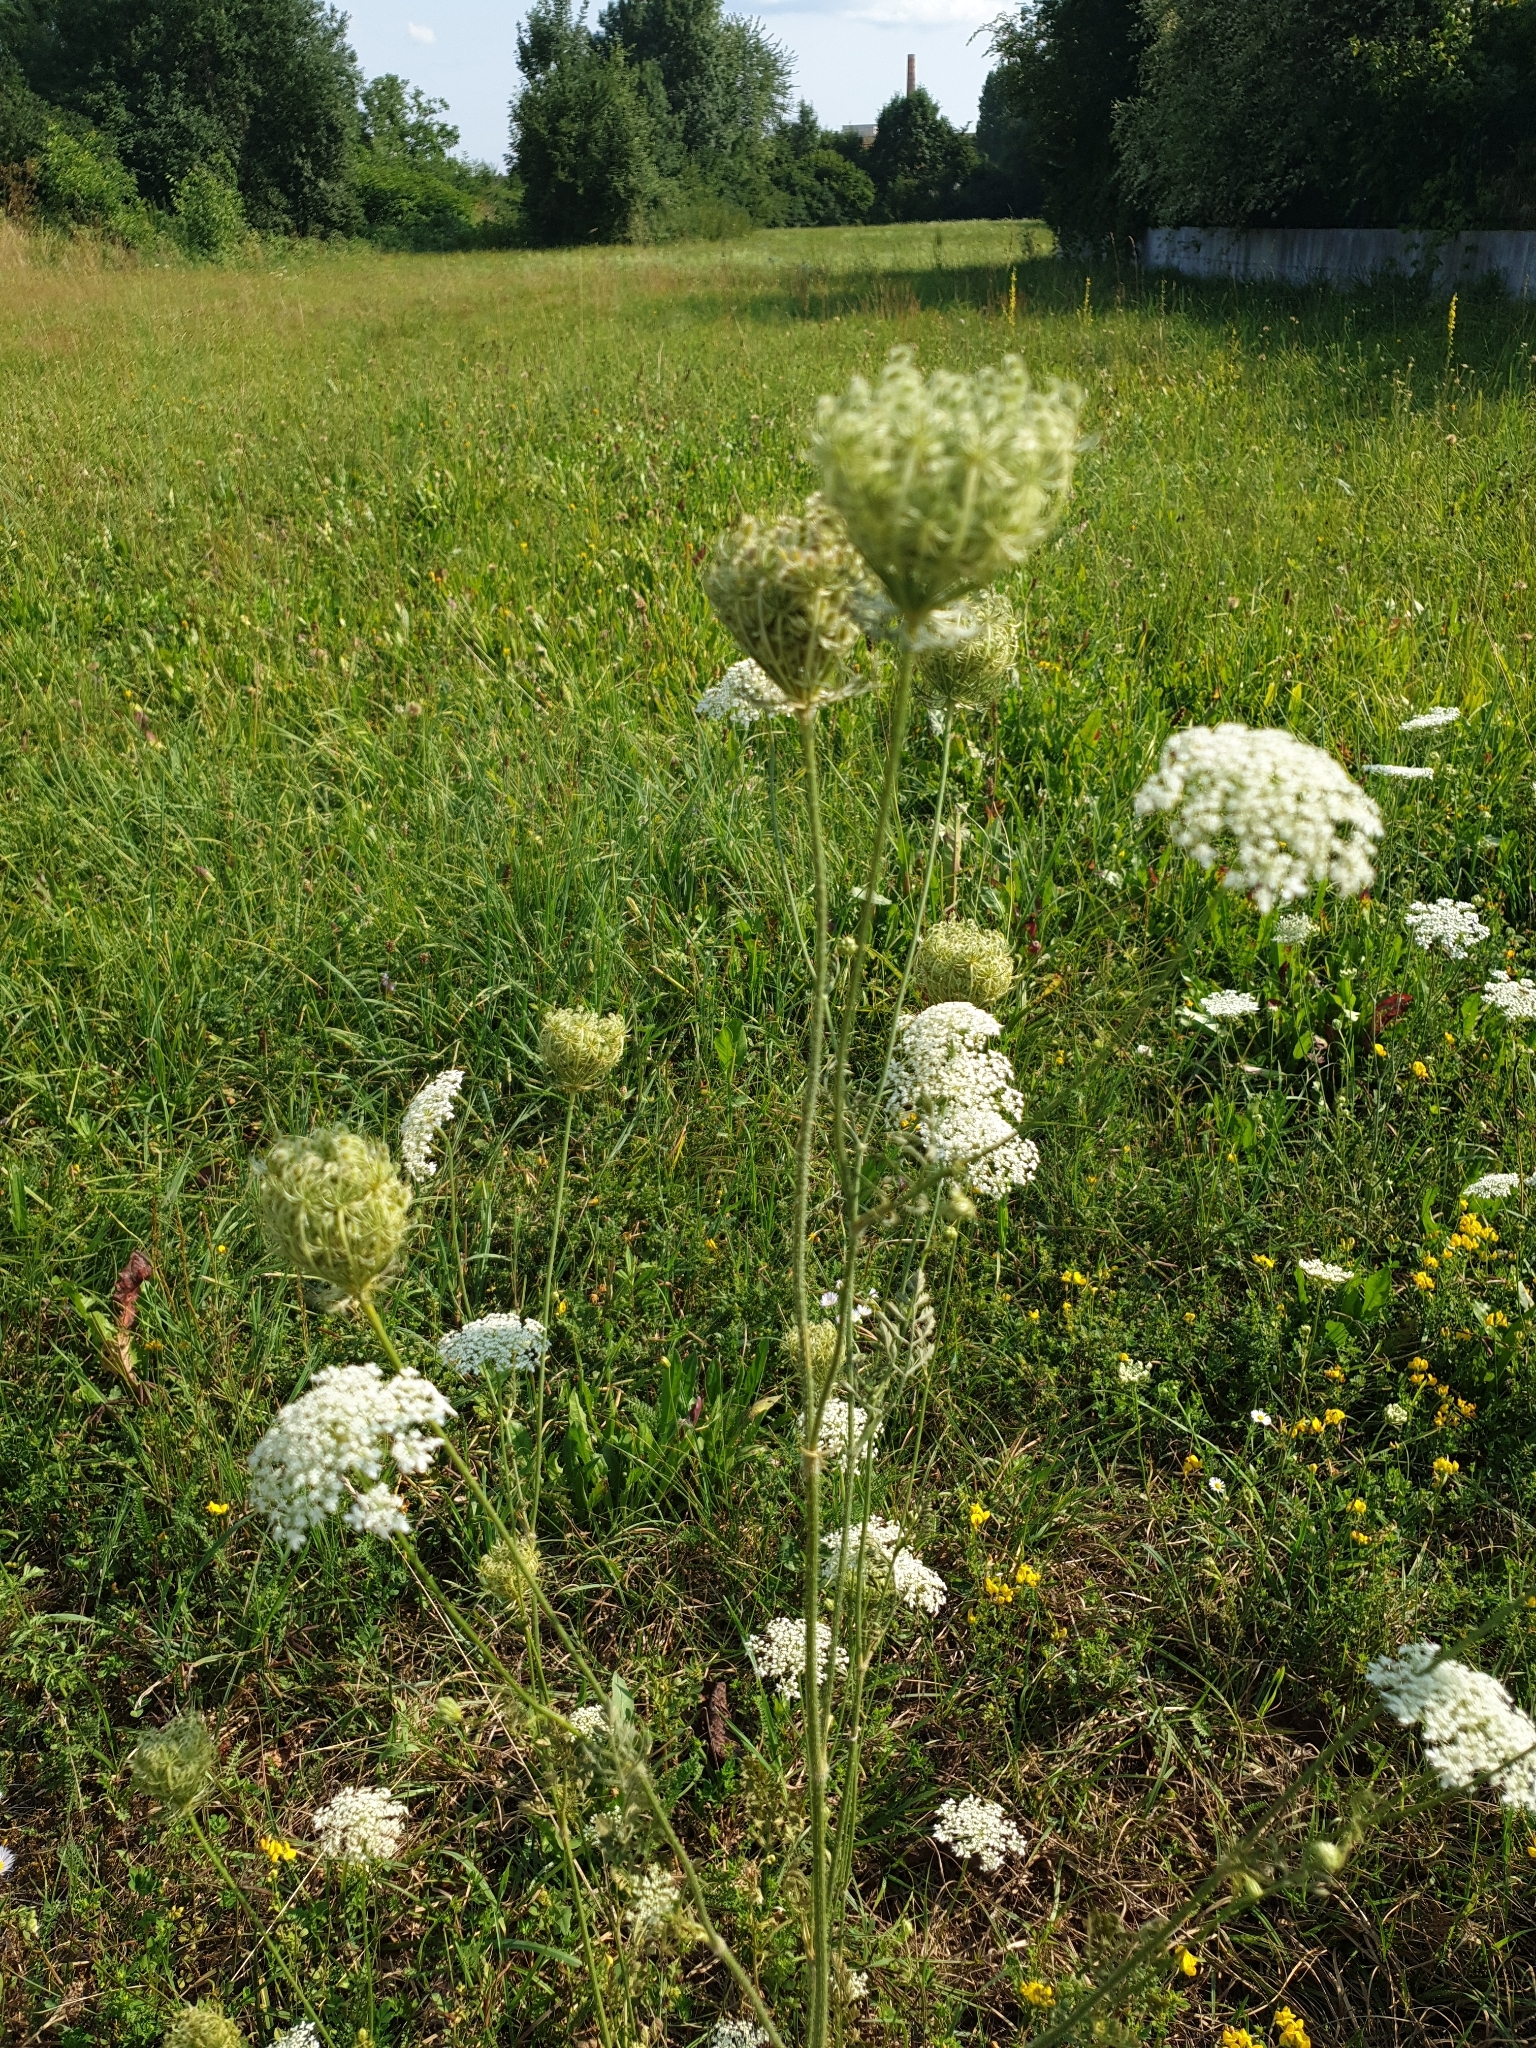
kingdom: Plantae
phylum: Tracheophyta
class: Magnoliopsida
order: Apiales
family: Apiaceae
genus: Daucus
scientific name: Daucus carota
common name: Wild carrot
